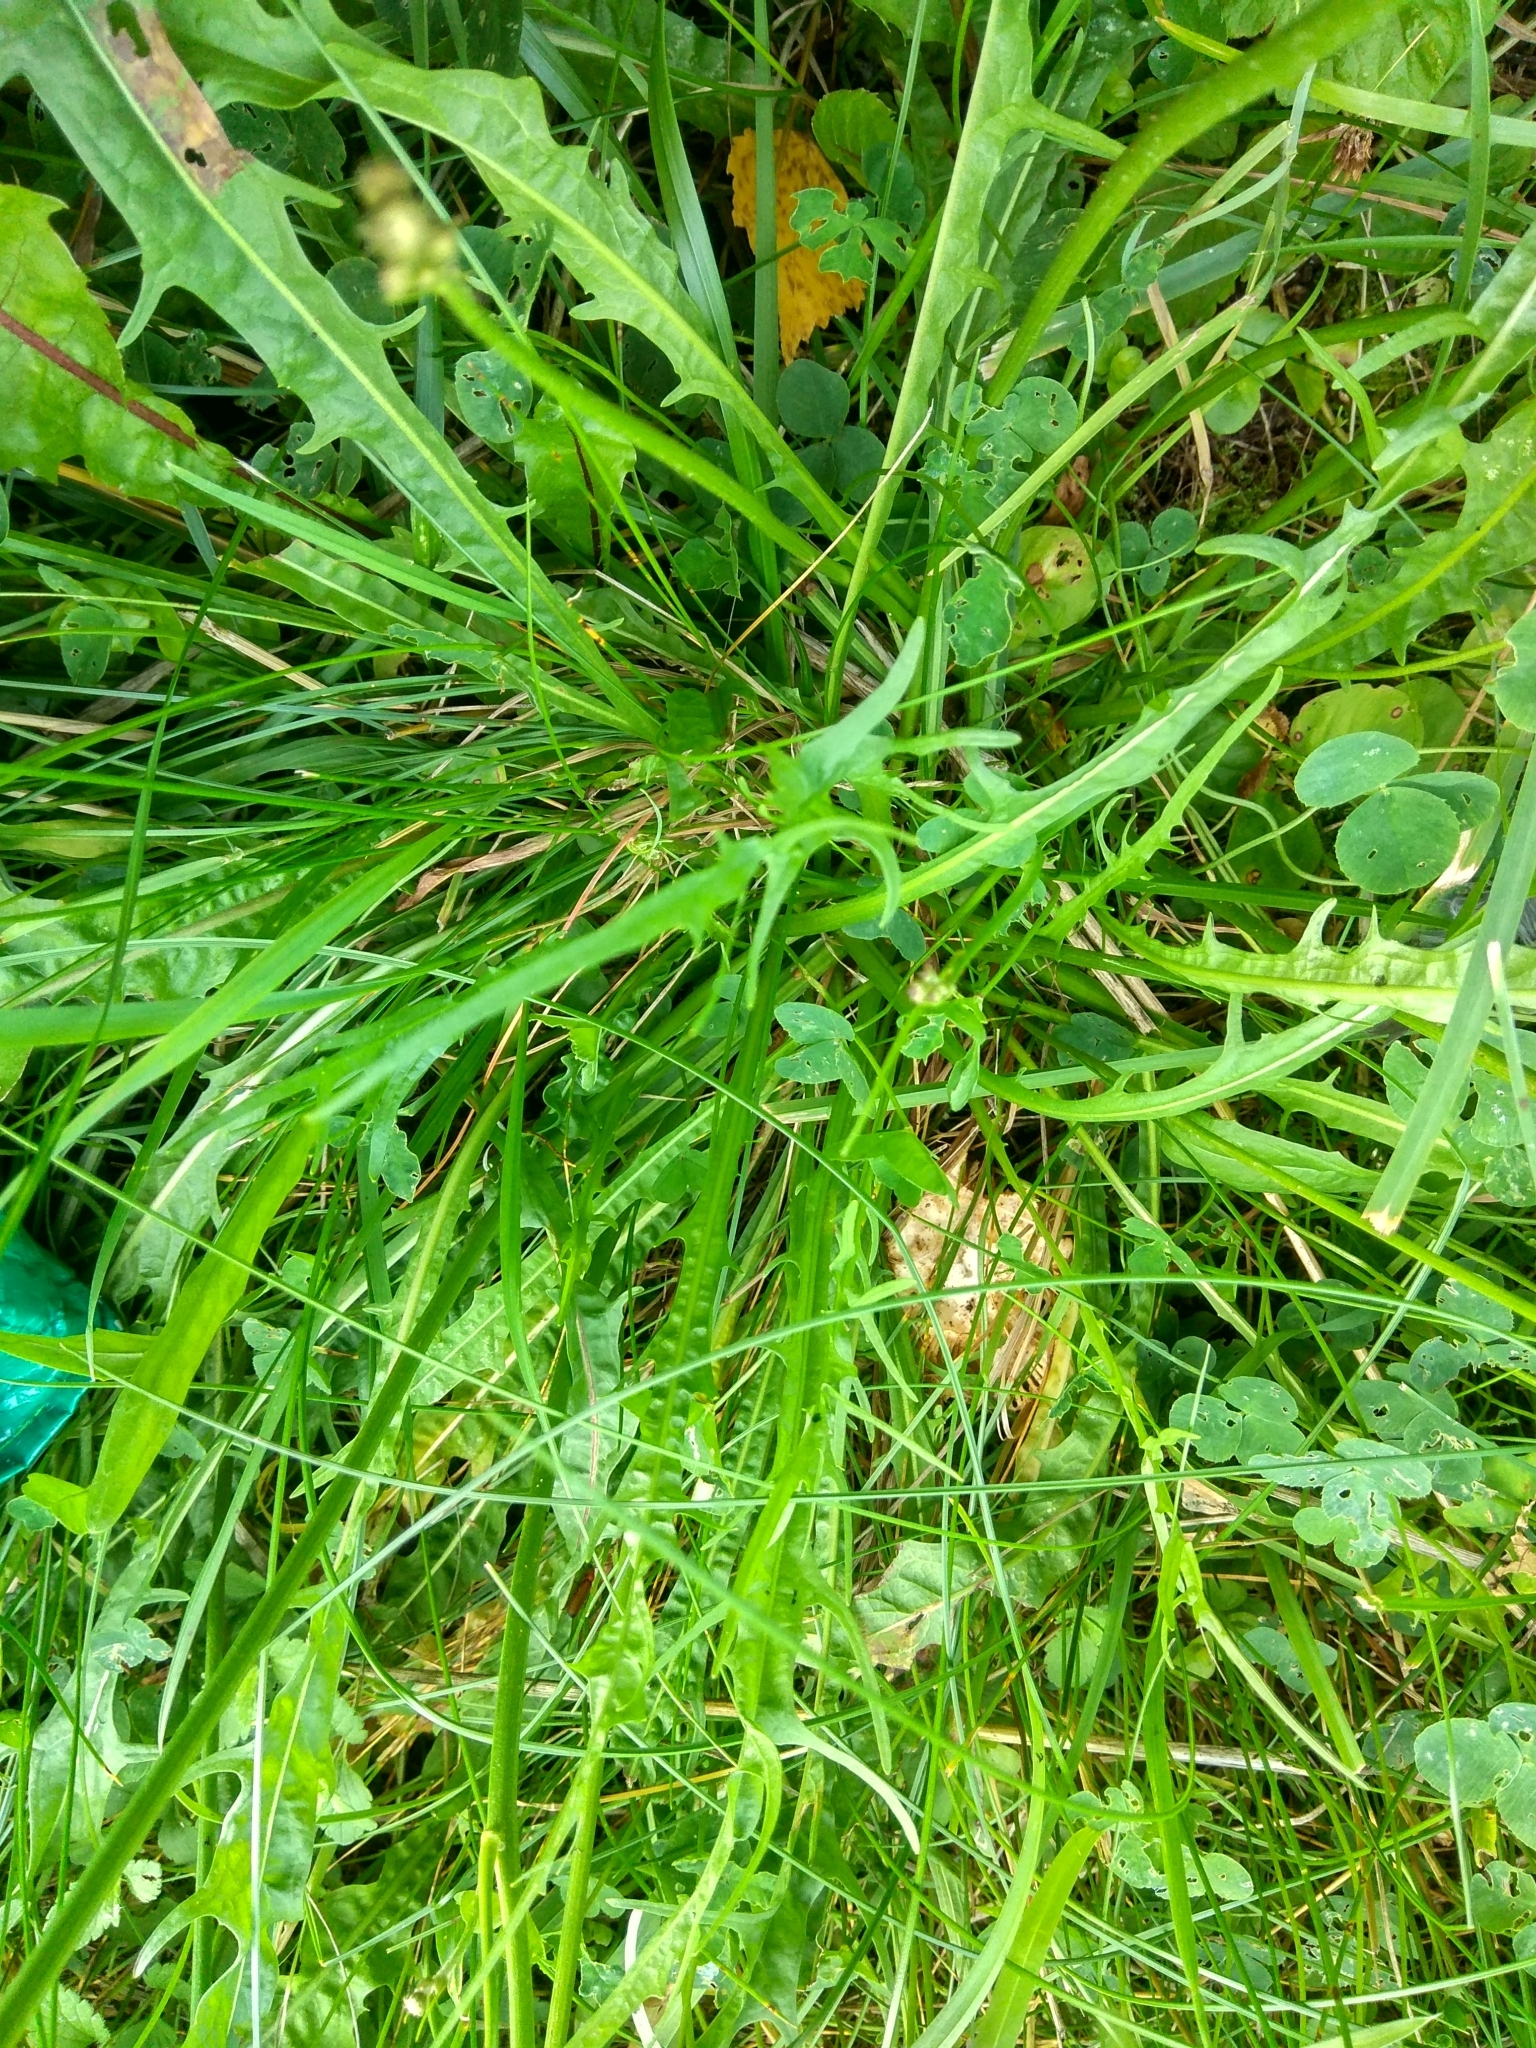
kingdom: Plantae
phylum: Tracheophyta
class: Magnoliopsida
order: Asterales
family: Asteraceae
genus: Scorzoneroides
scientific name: Scorzoneroides autumnalis
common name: Autumn hawkbit
